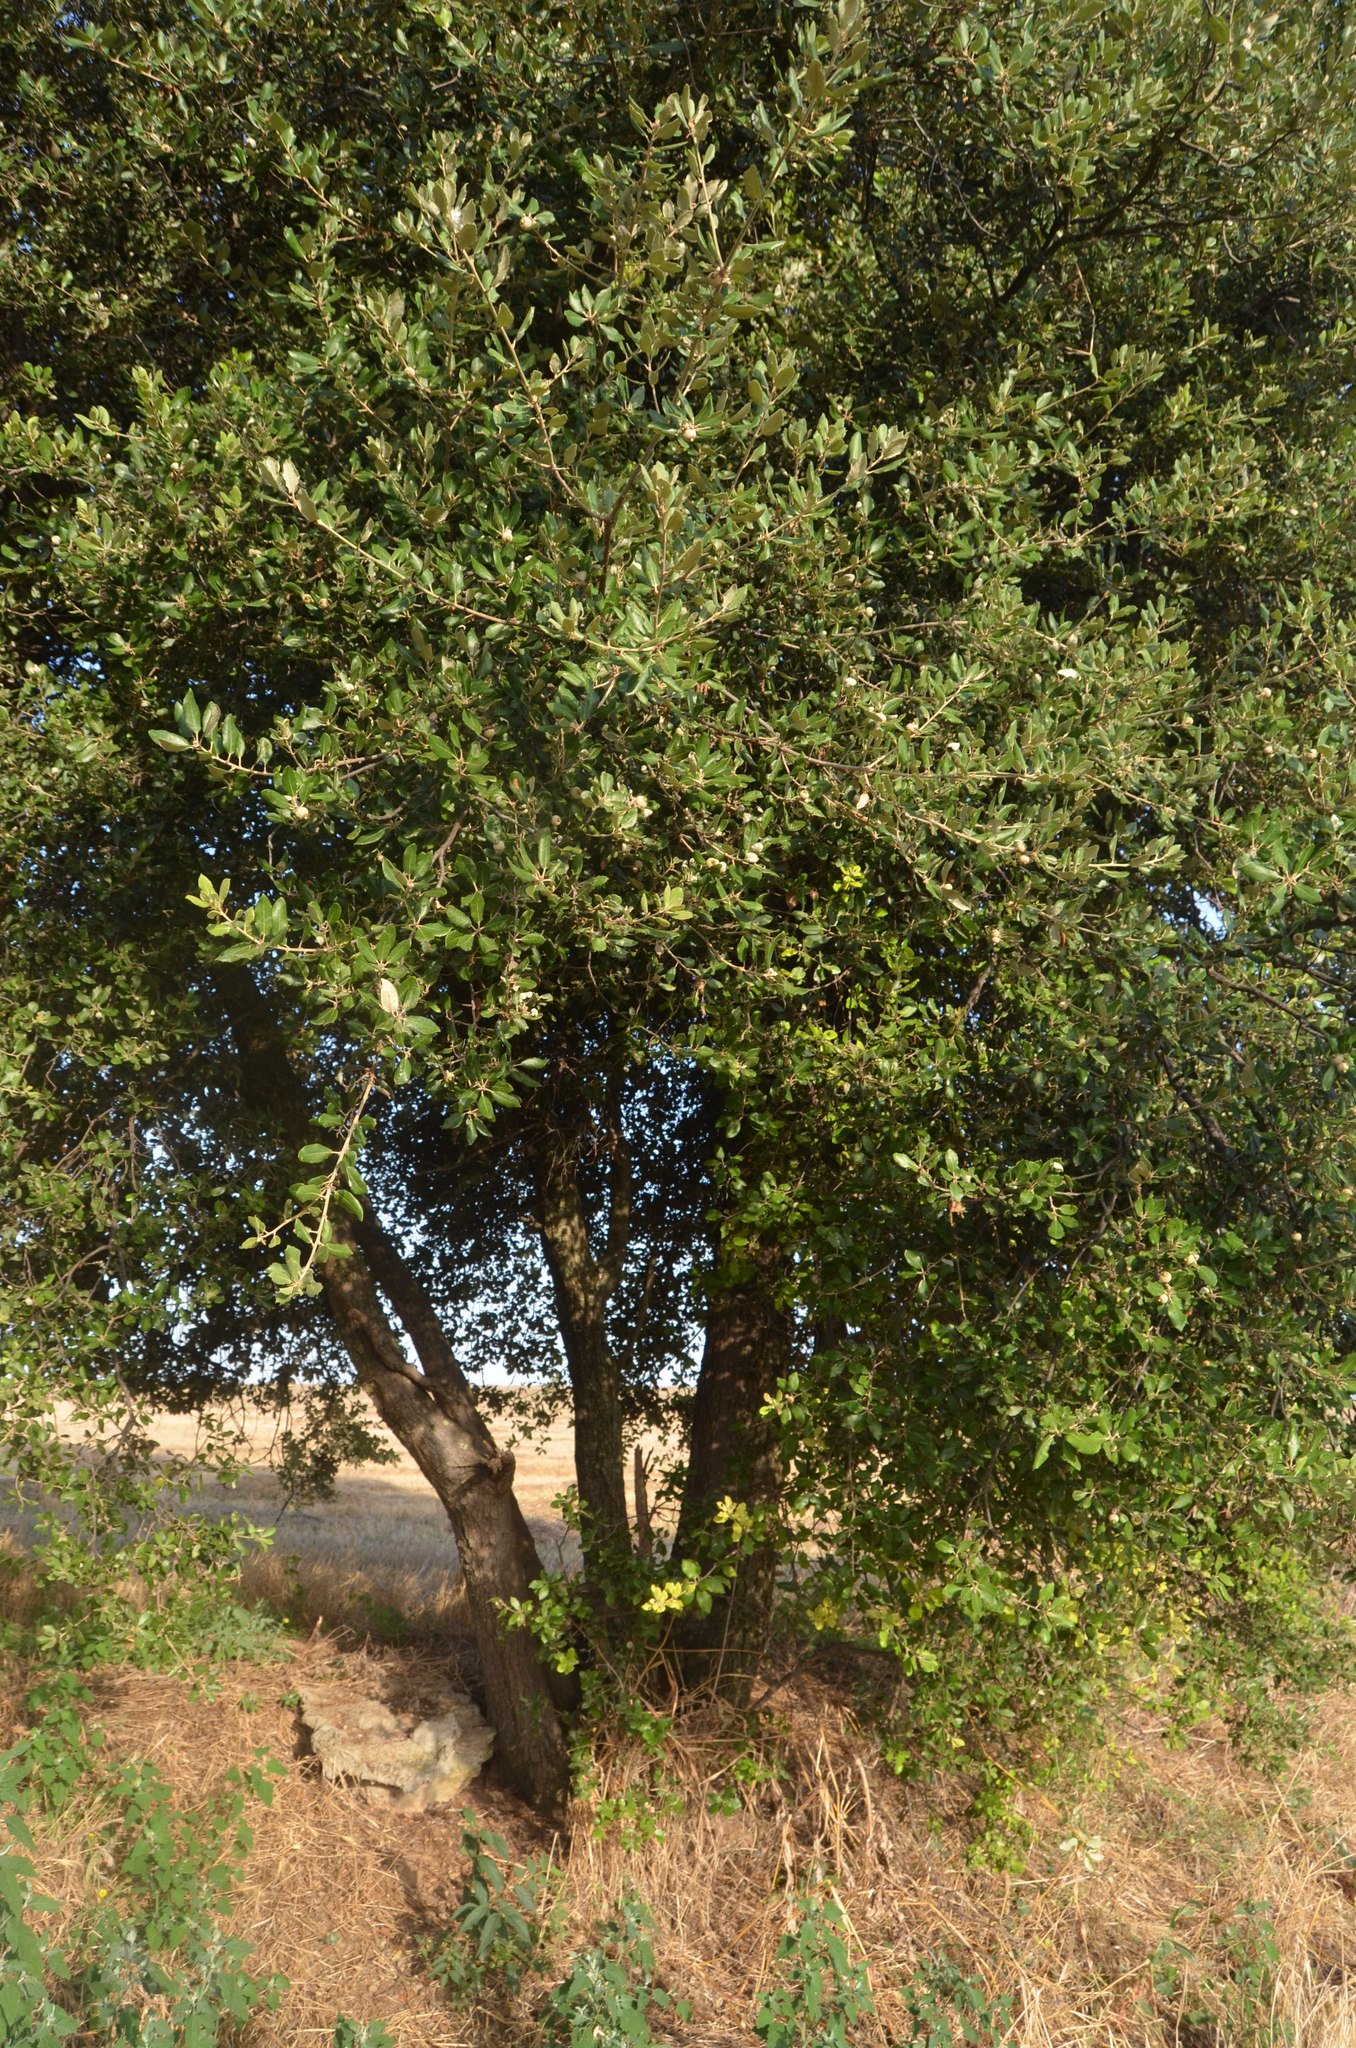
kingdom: Plantae
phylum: Tracheophyta
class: Magnoliopsida
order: Fagales
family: Fagaceae
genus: Quercus
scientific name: Quercus ilex
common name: Evergreen oak
